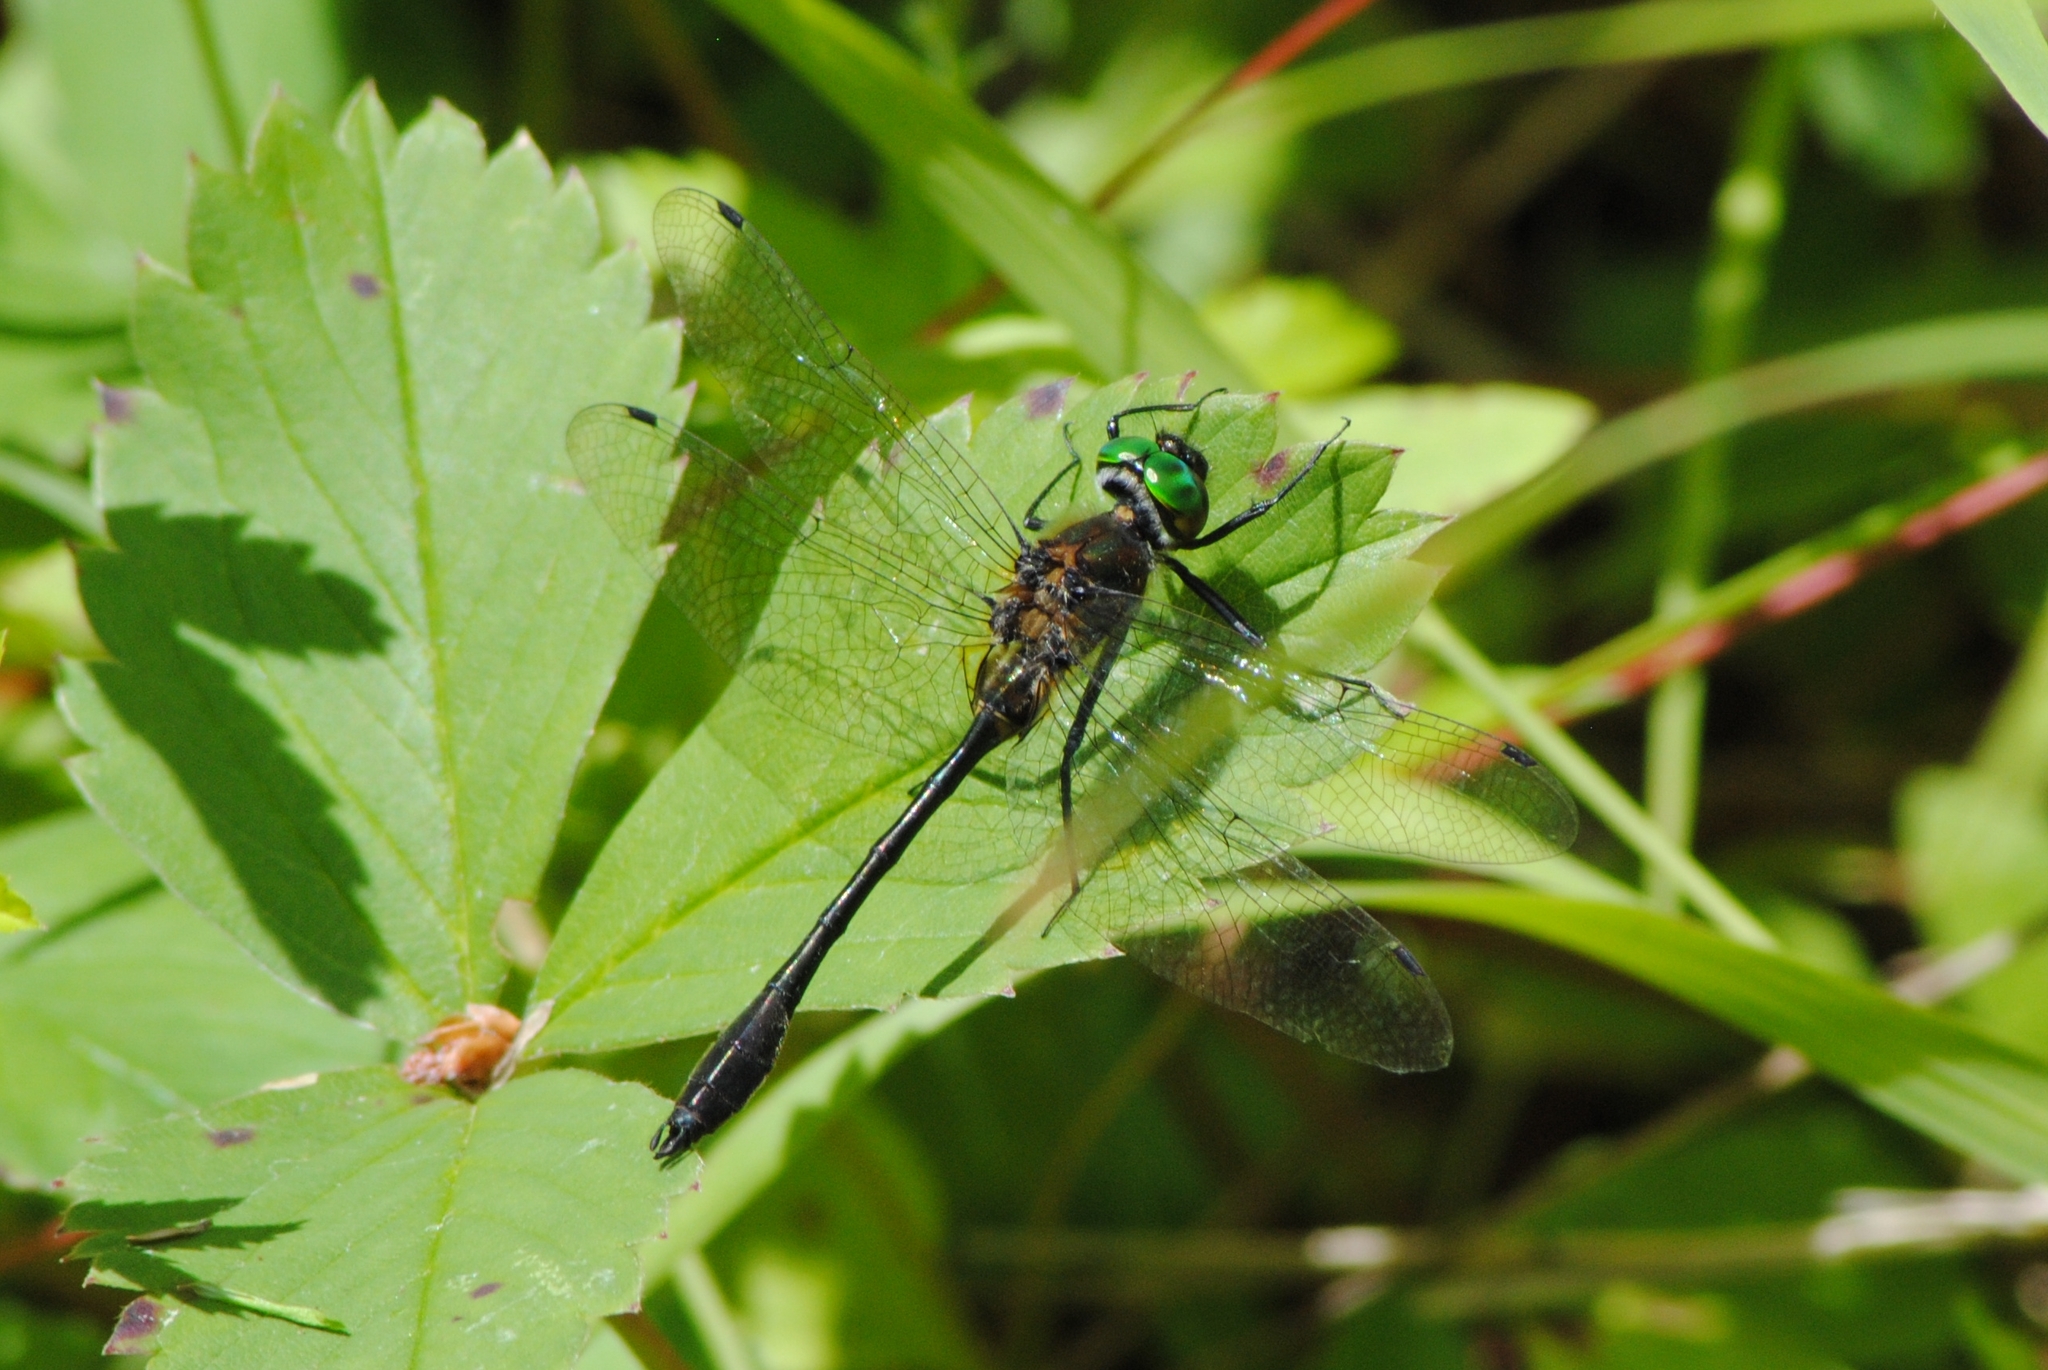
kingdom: Animalia
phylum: Arthropoda
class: Insecta
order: Odonata
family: Corduliidae
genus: Dorocordulia
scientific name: Dorocordulia libera
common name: Racket-tailed emerald
